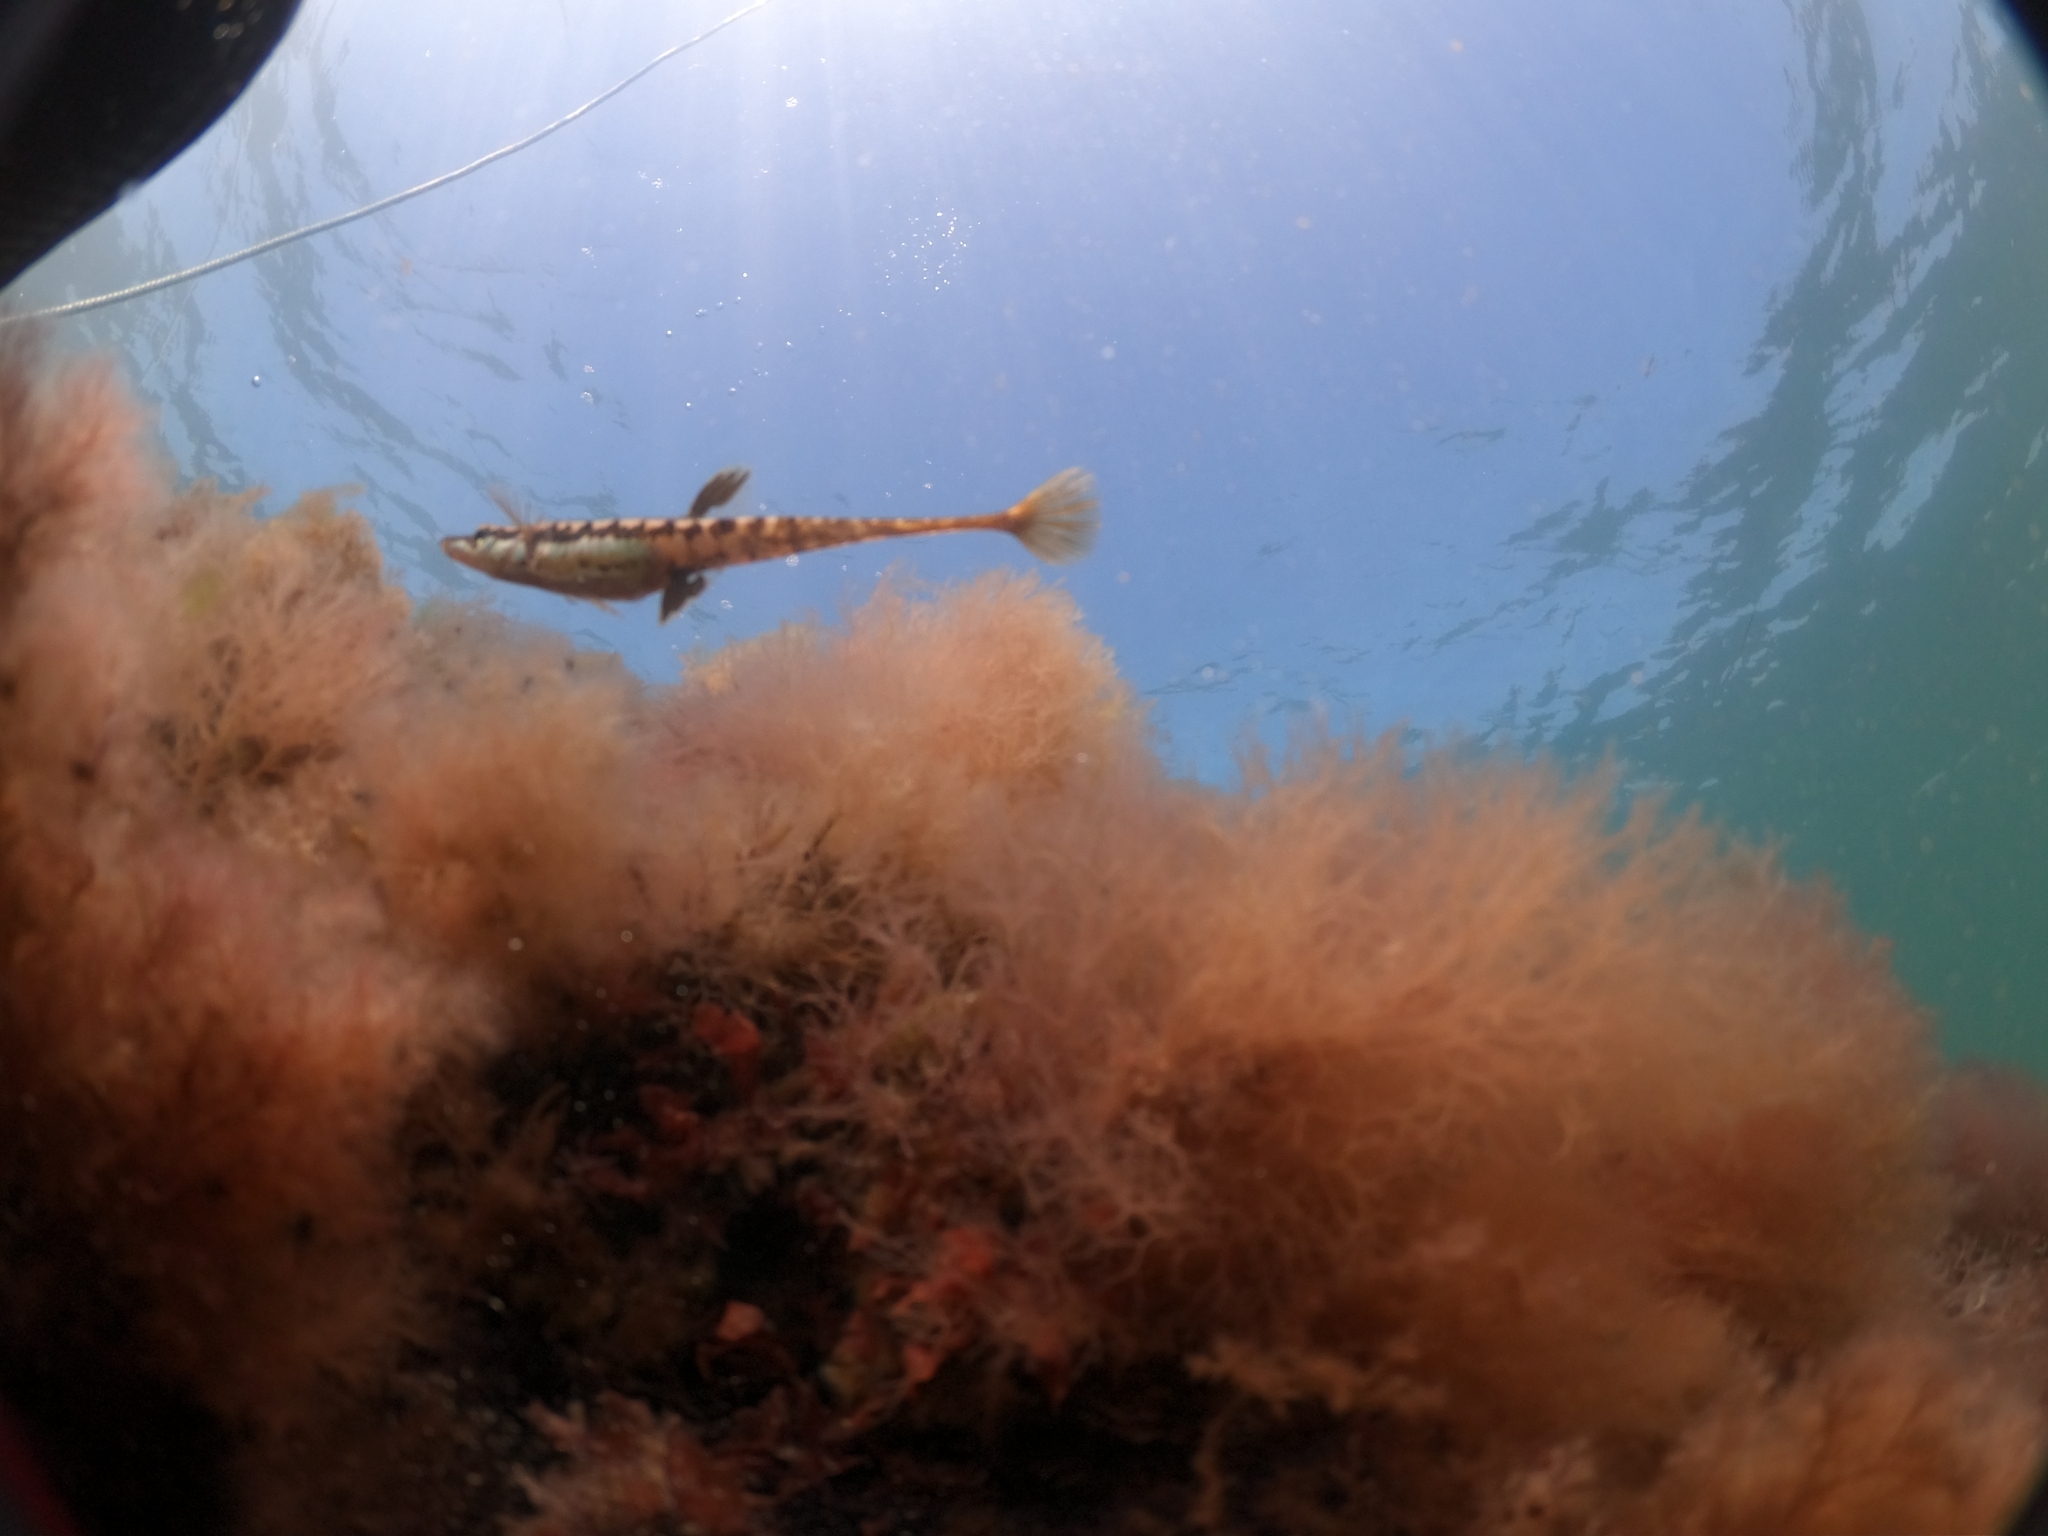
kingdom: Animalia
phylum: Chordata
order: Gasterosteiformes
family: Gasterosteidae
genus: Spinachia
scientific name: Spinachia spinachia
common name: Fifteen-spined stickleback
